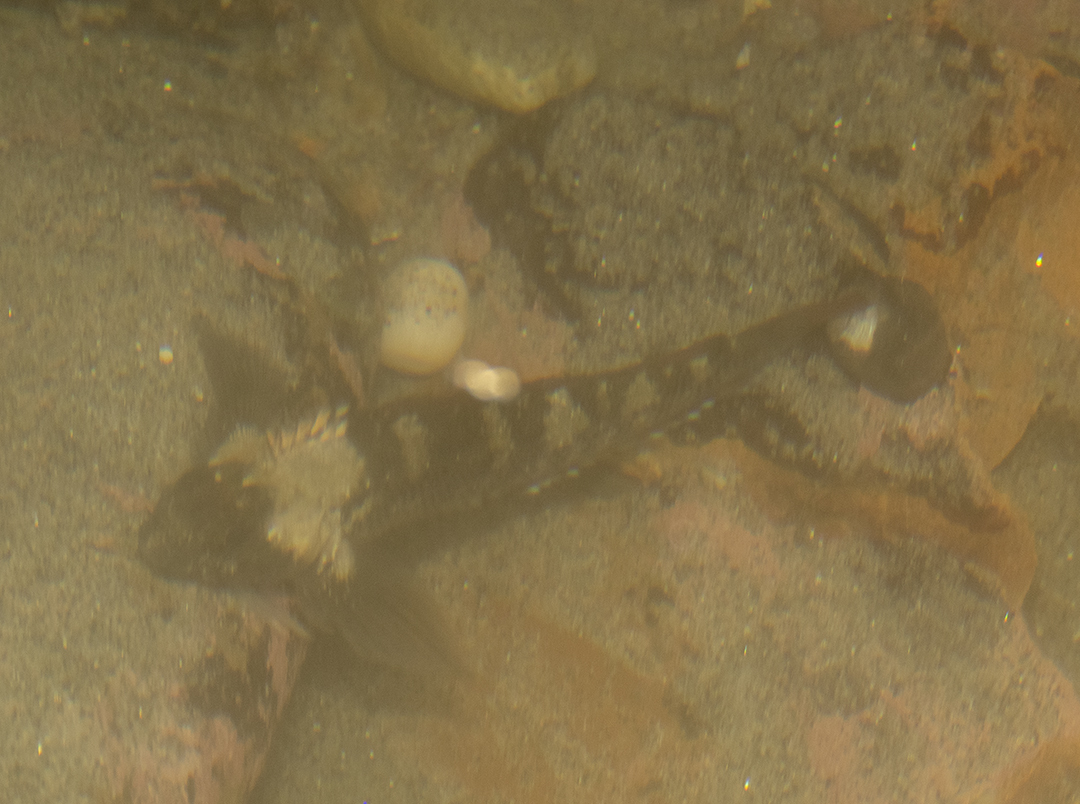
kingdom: Animalia
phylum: Chordata
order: Perciformes
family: Tripterygiidae
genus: Forsterygion
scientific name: Forsterygion lapillum
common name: Common triplefin
